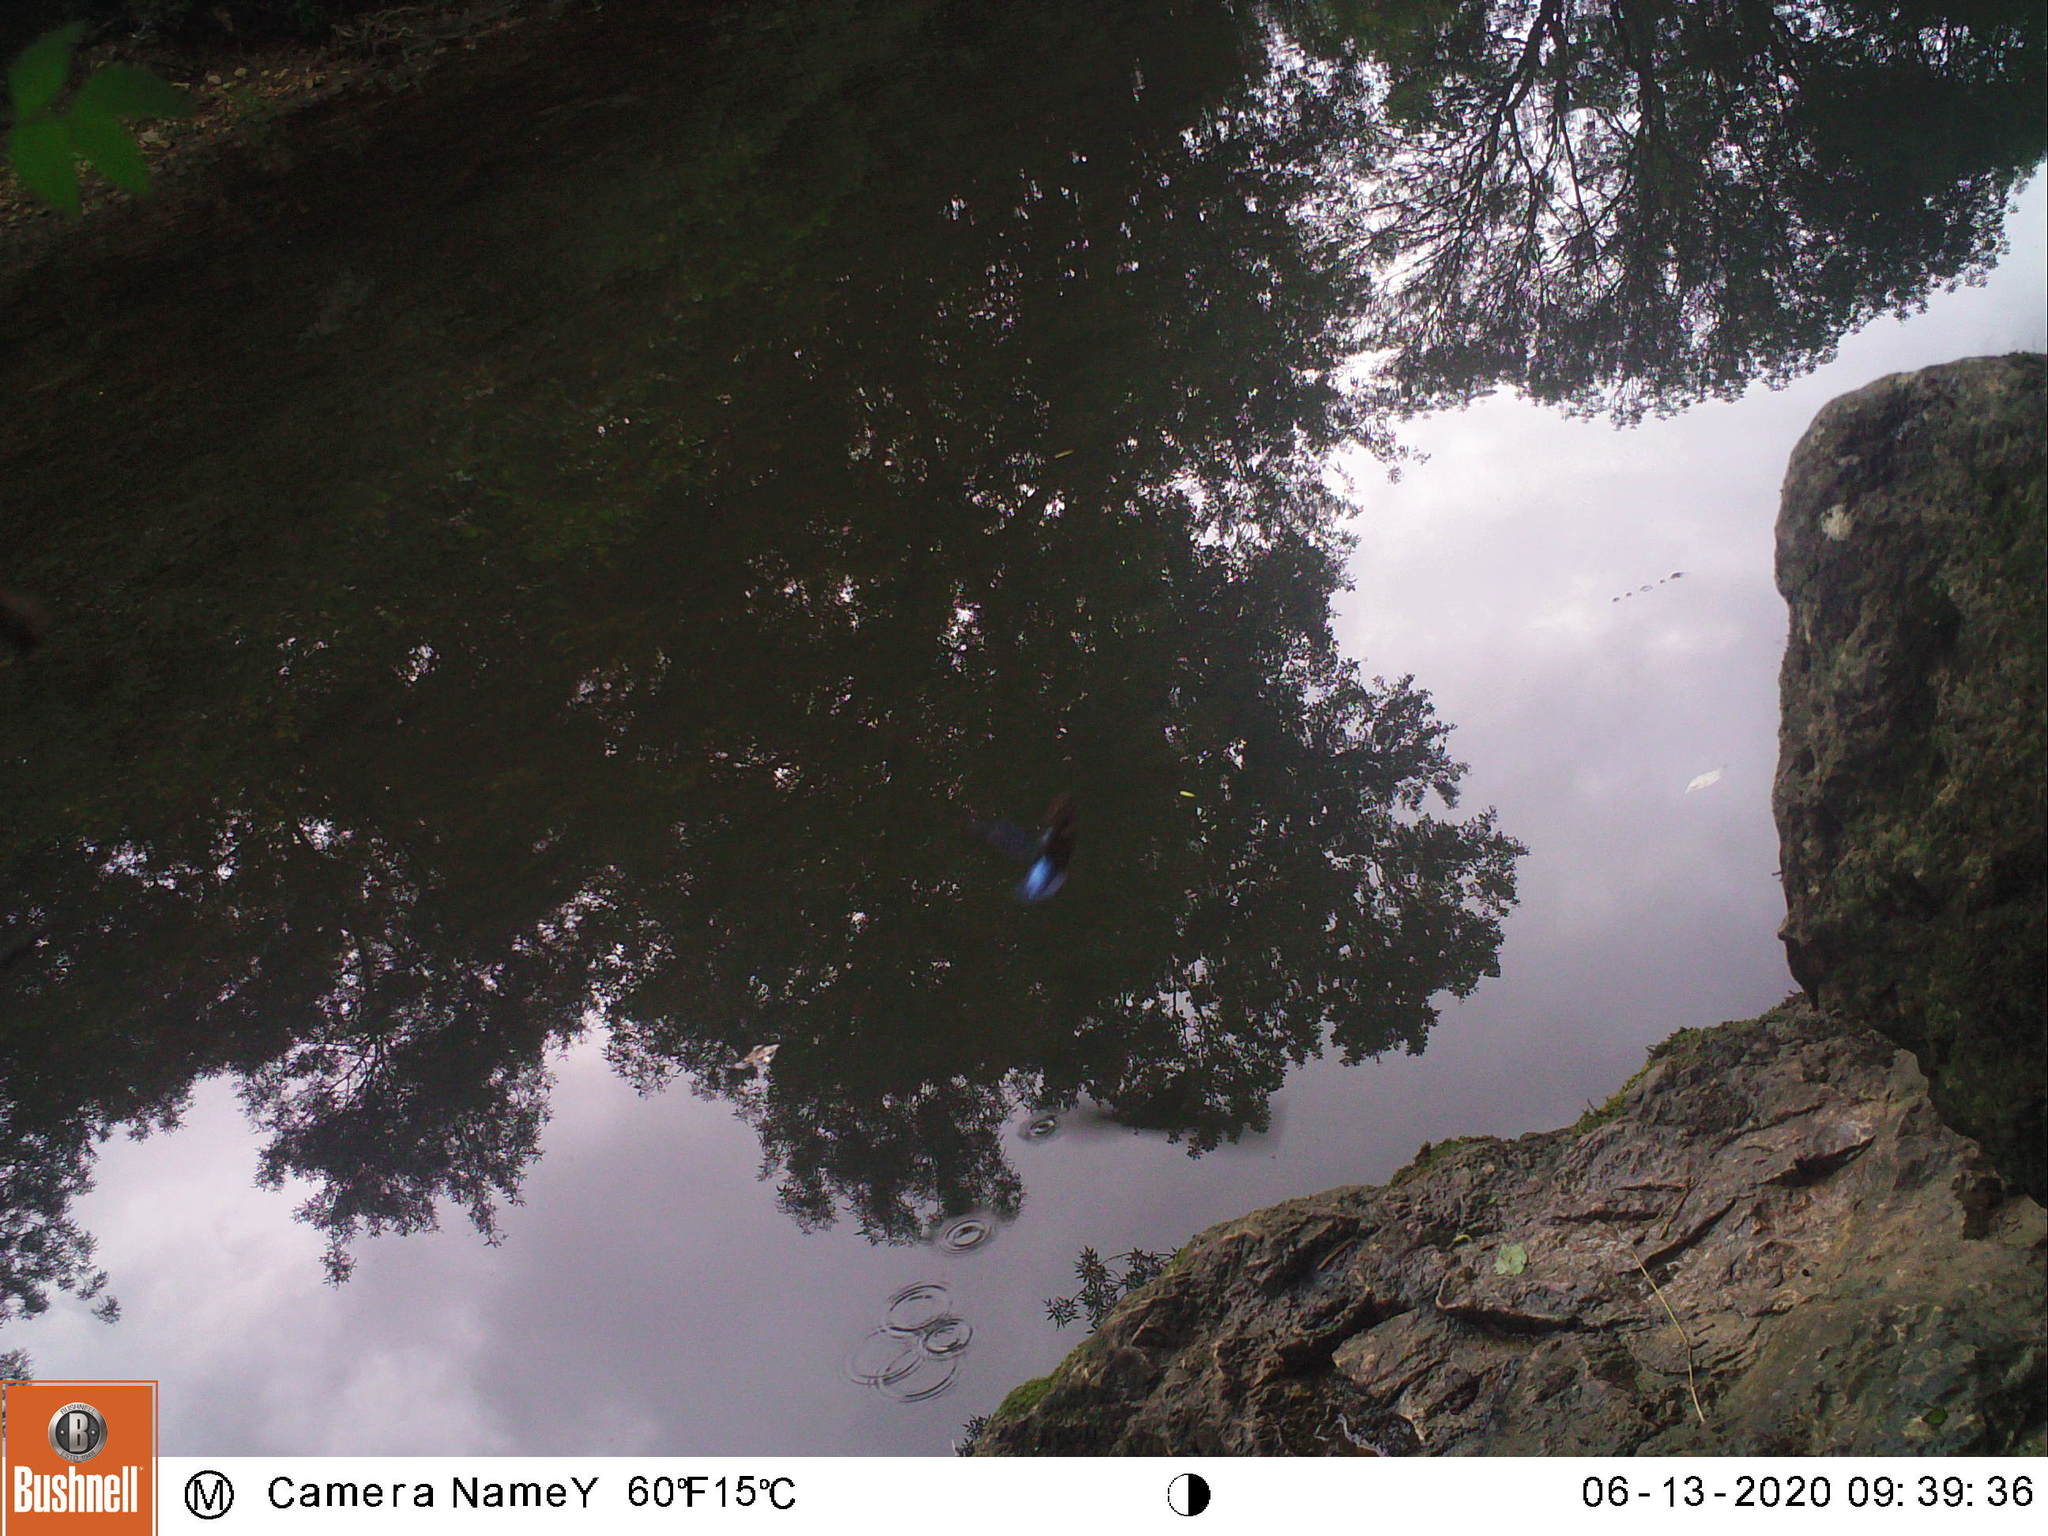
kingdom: Animalia
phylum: Chordata
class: Aves
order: Coraciiformes
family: Alcedinidae
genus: Alcedo
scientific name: Alcedo atthis
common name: Common kingfisher
